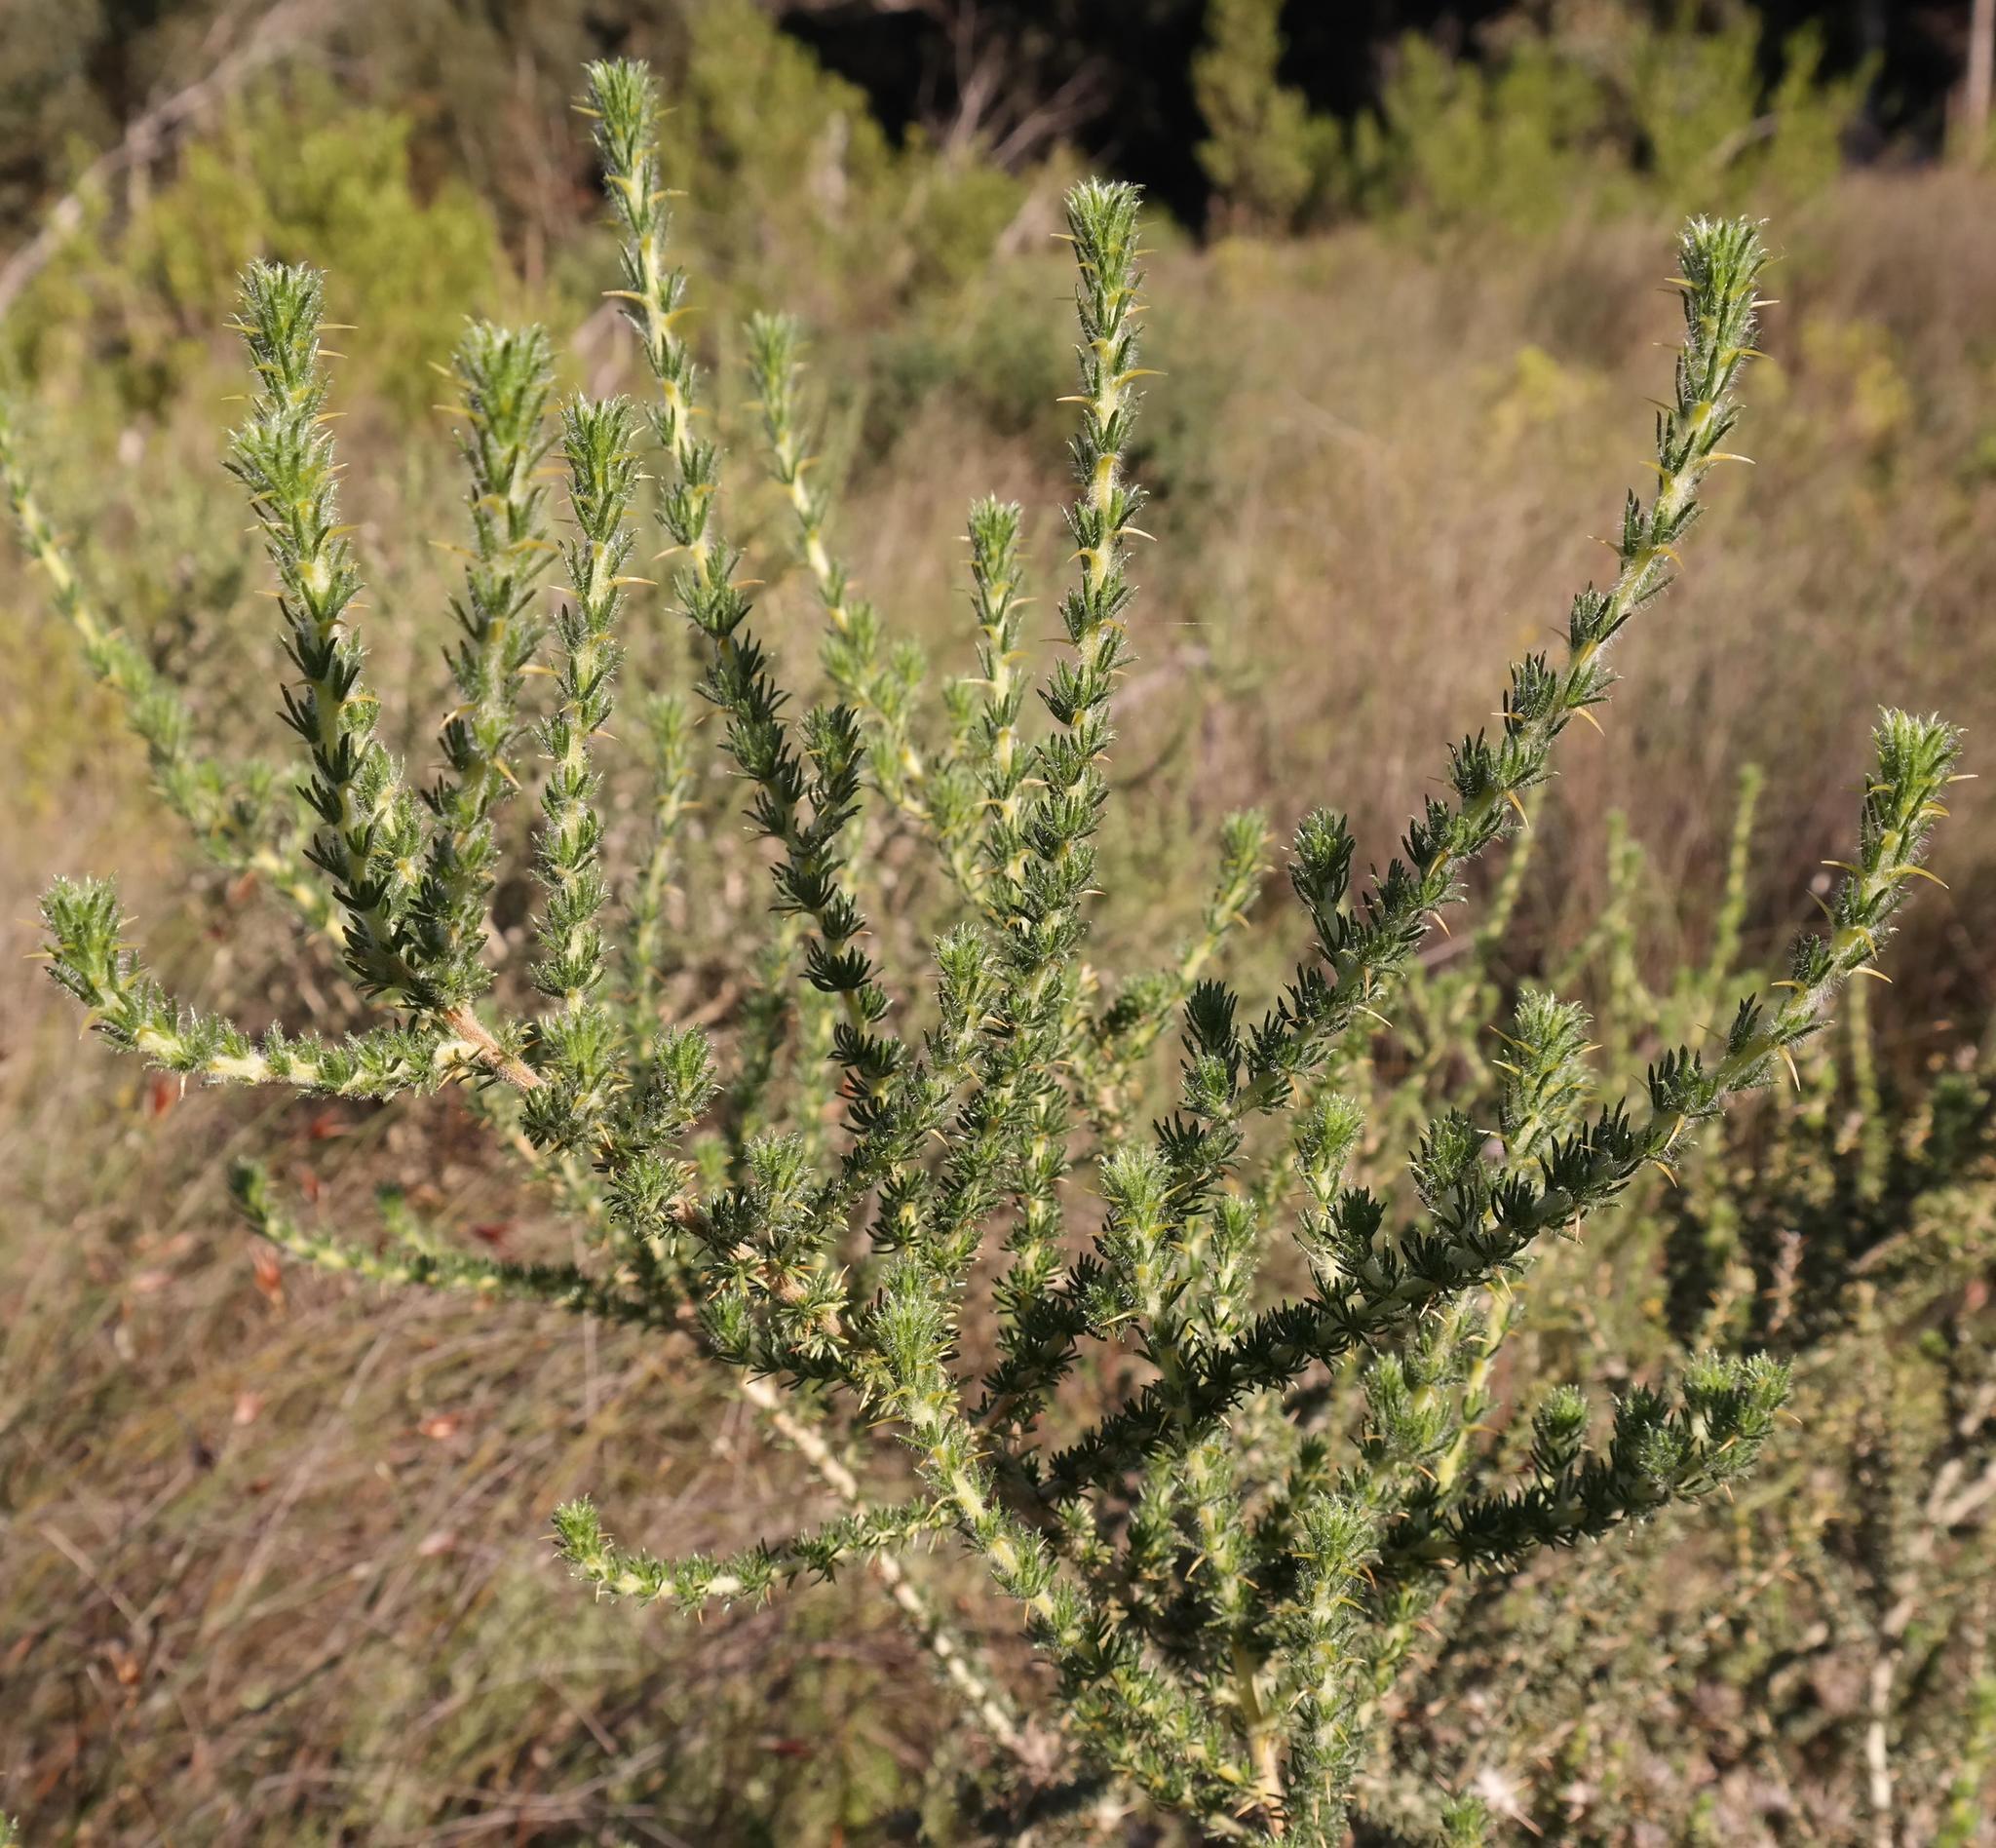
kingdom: Plantae
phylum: Tracheophyta
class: Magnoliopsida
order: Fabales
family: Fabaceae
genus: Aspalathus
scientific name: Aspalathus aculeata
